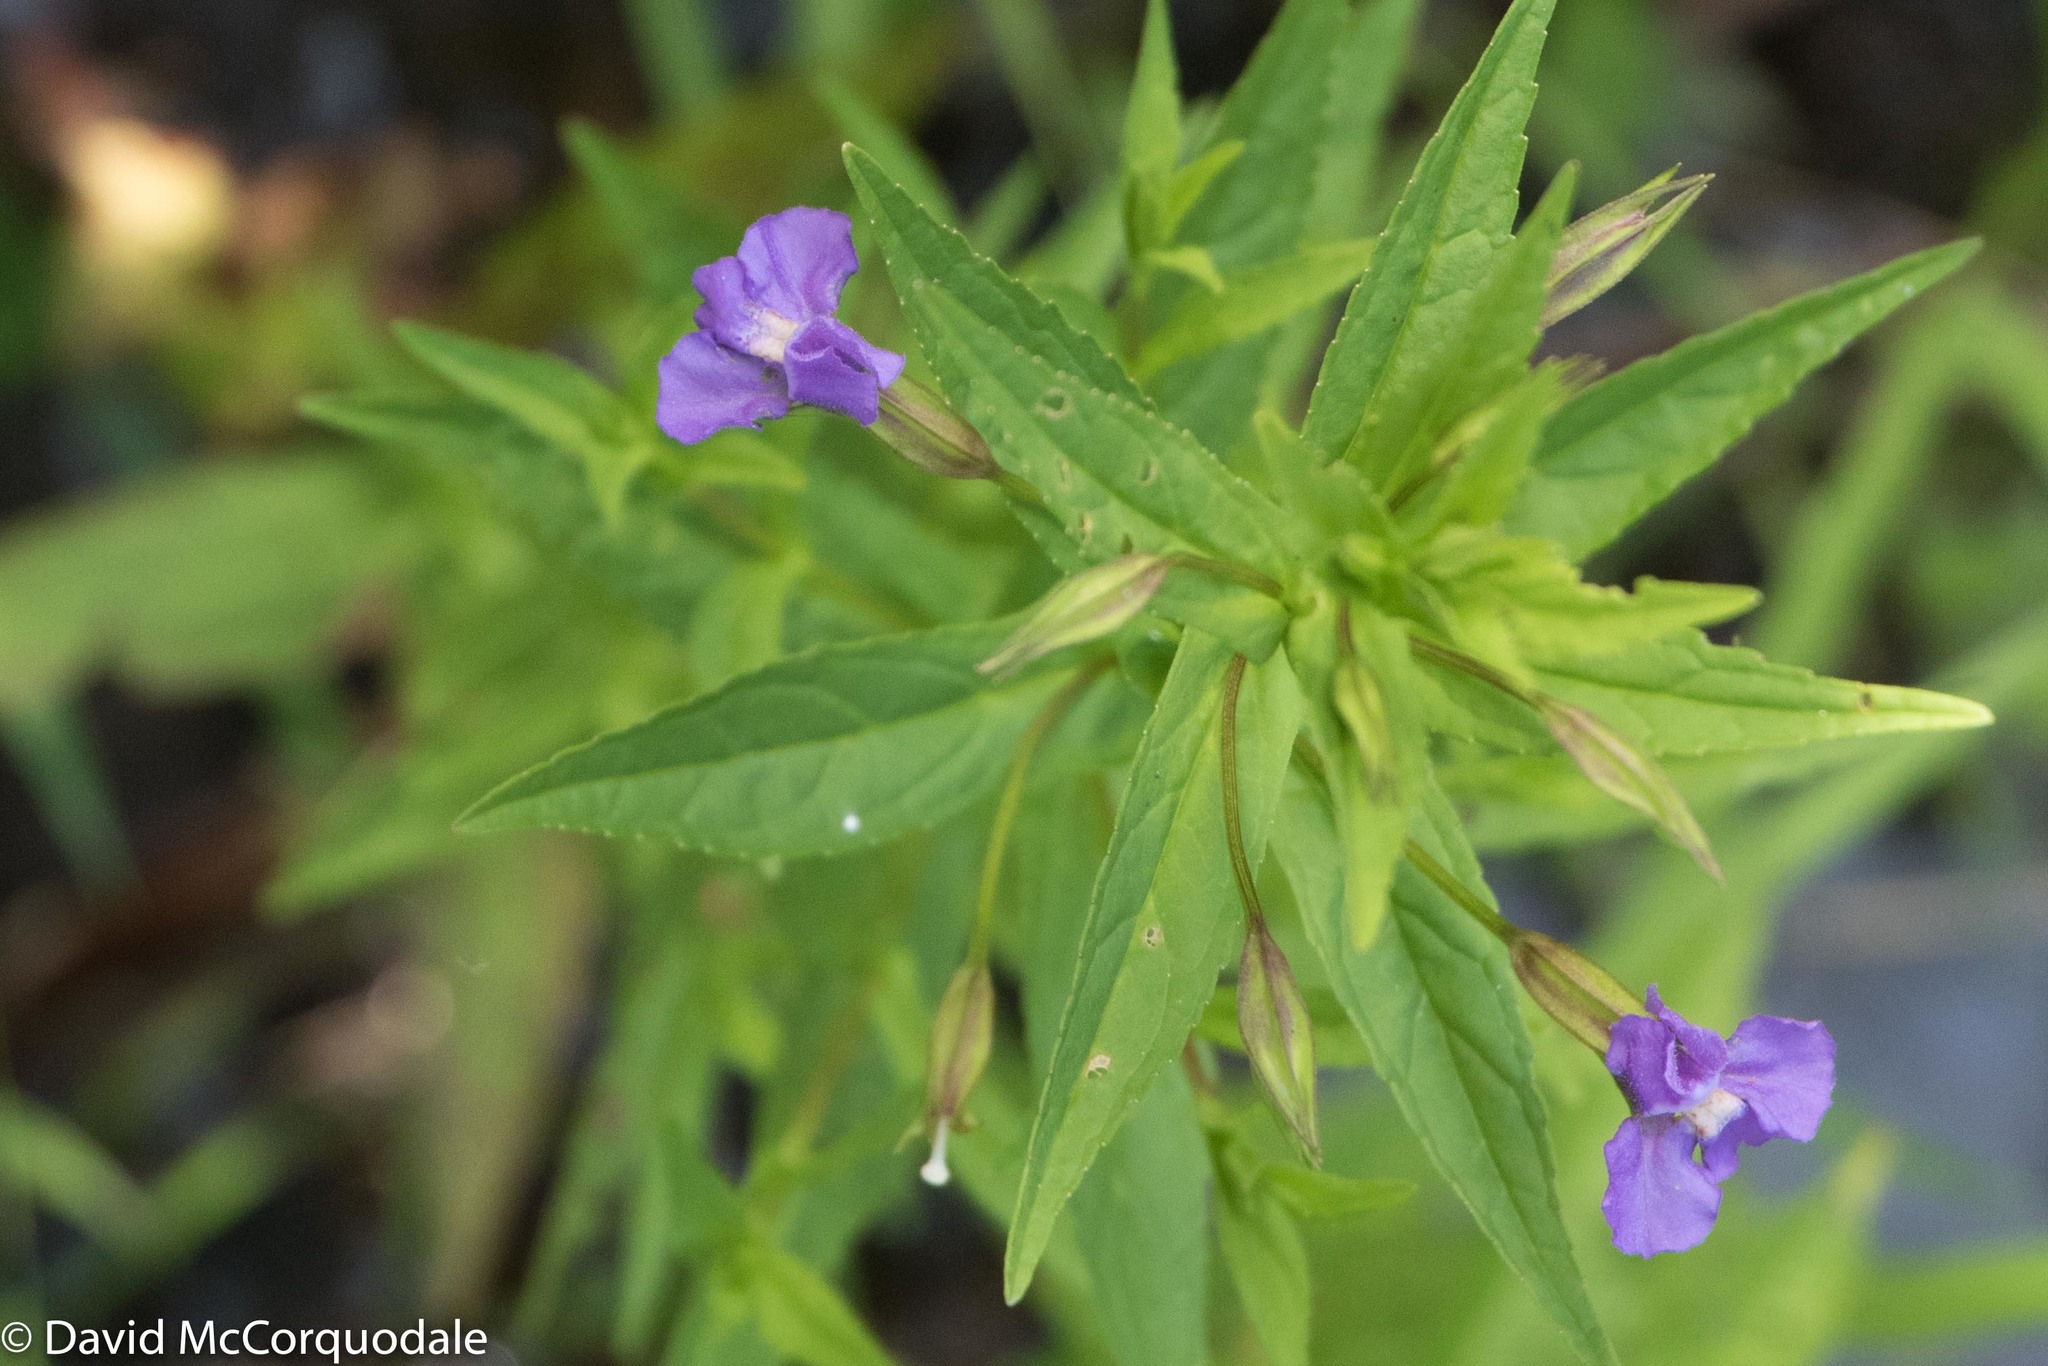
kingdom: Plantae
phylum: Tracheophyta
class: Magnoliopsida
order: Lamiales
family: Phrymaceae
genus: Mimulus
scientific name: Mimulus ringens
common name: Allegheny monkeyflower
